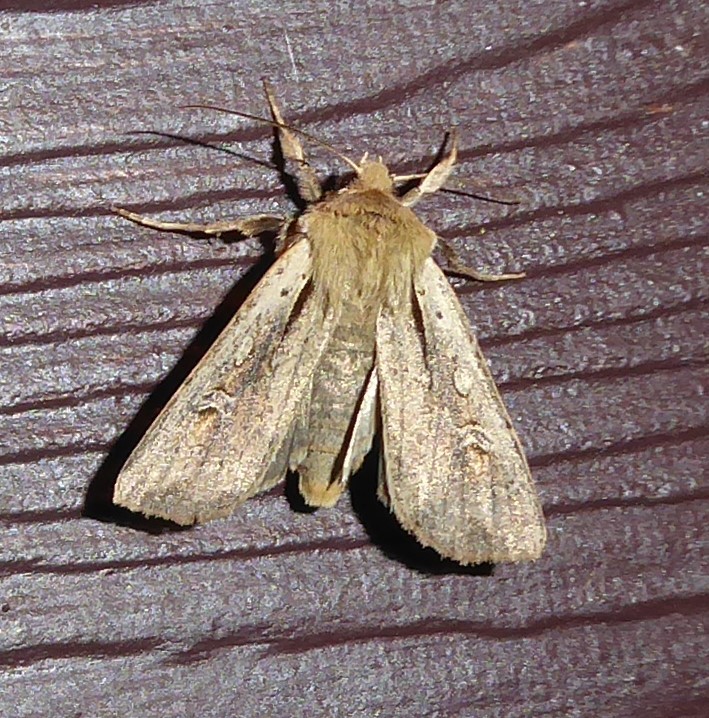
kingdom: Animalia
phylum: Arthropoda
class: Insecta
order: Lepidoptera
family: Noctuidae
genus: Ichneutica
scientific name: Ichneutica atristriga
